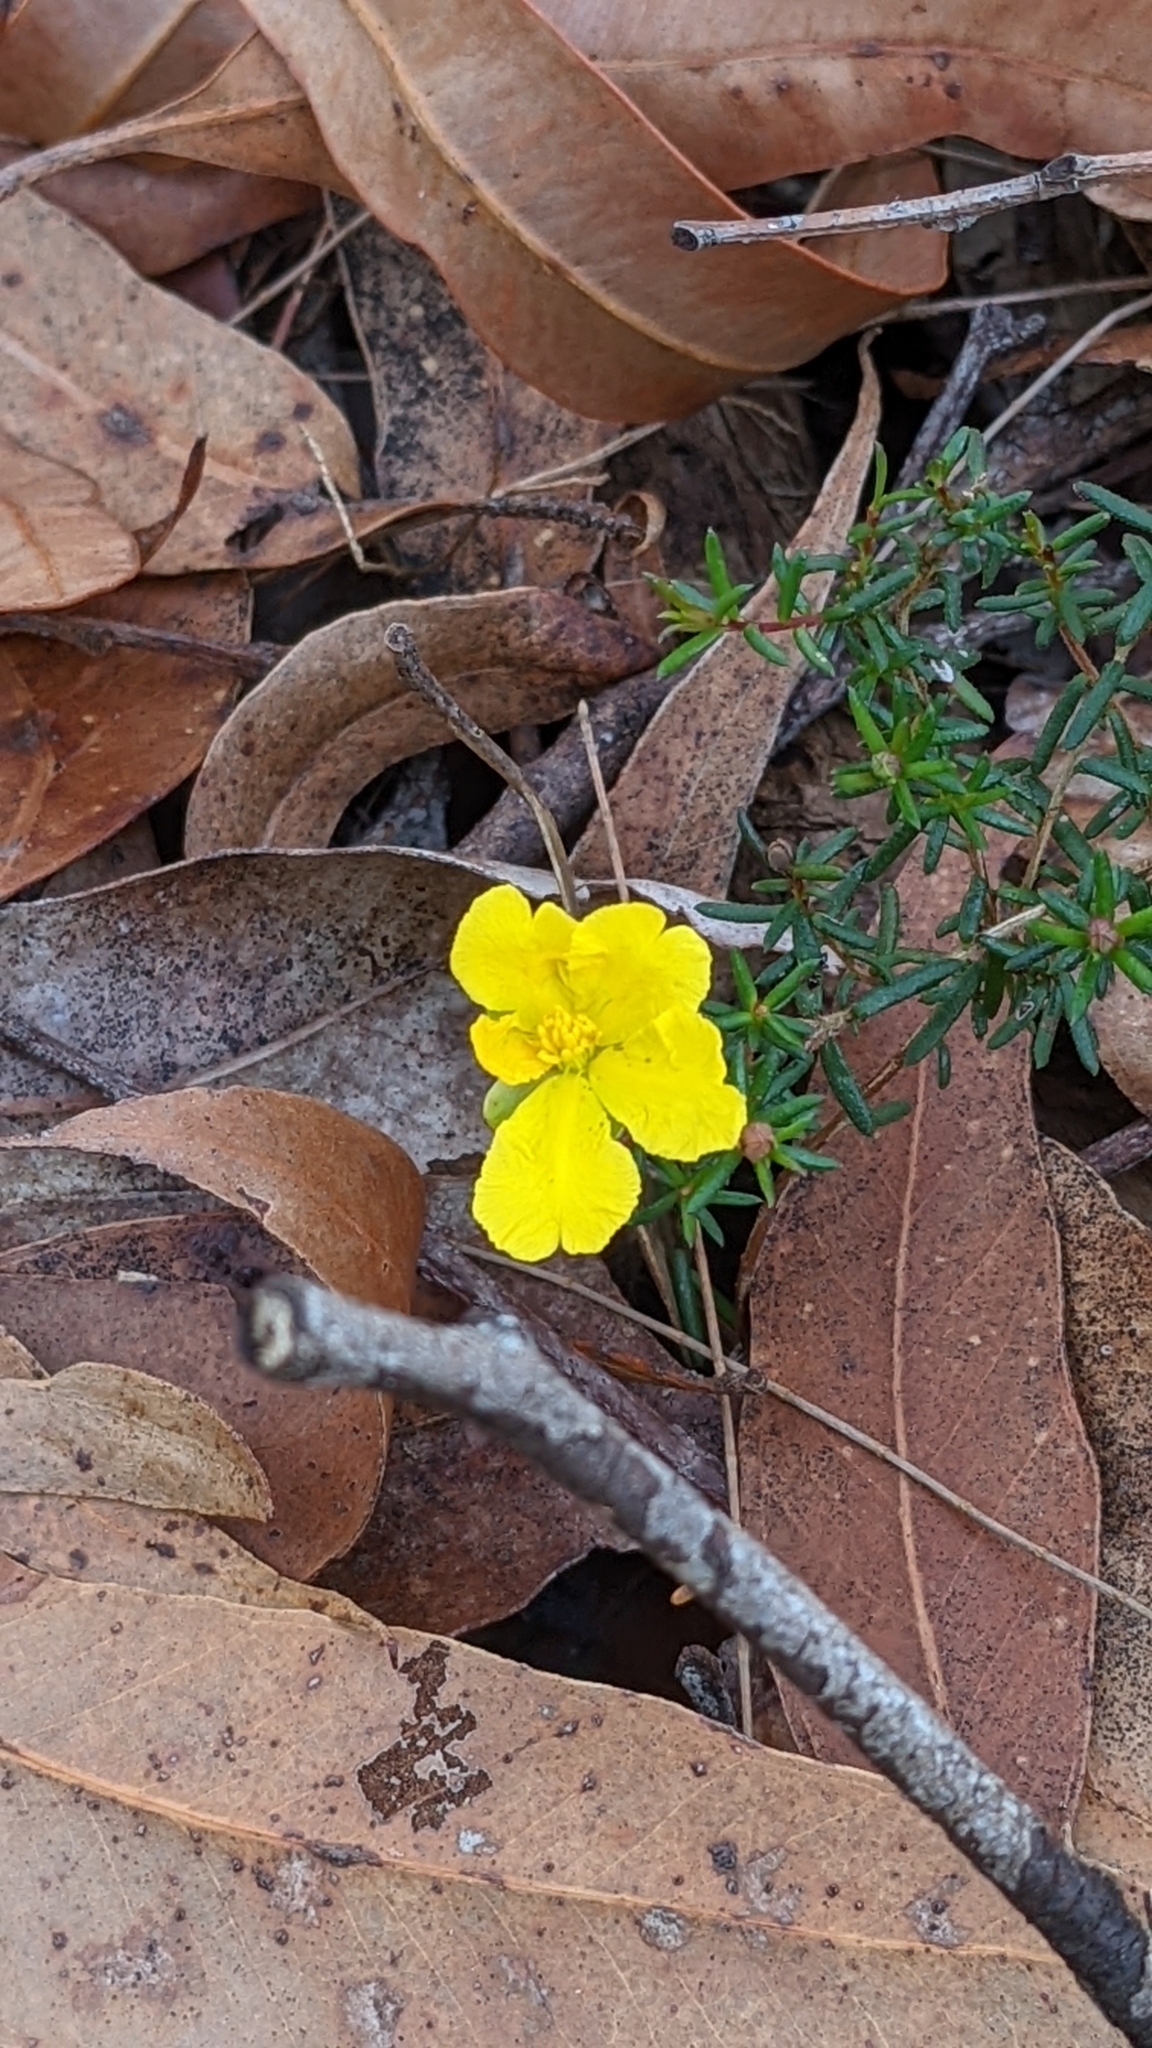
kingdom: Plantae
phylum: Tracheophyta
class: Magnoliopsida
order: Dilleniales
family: Dilleniaceae
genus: Hibbertia
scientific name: Hibbertia linearis
